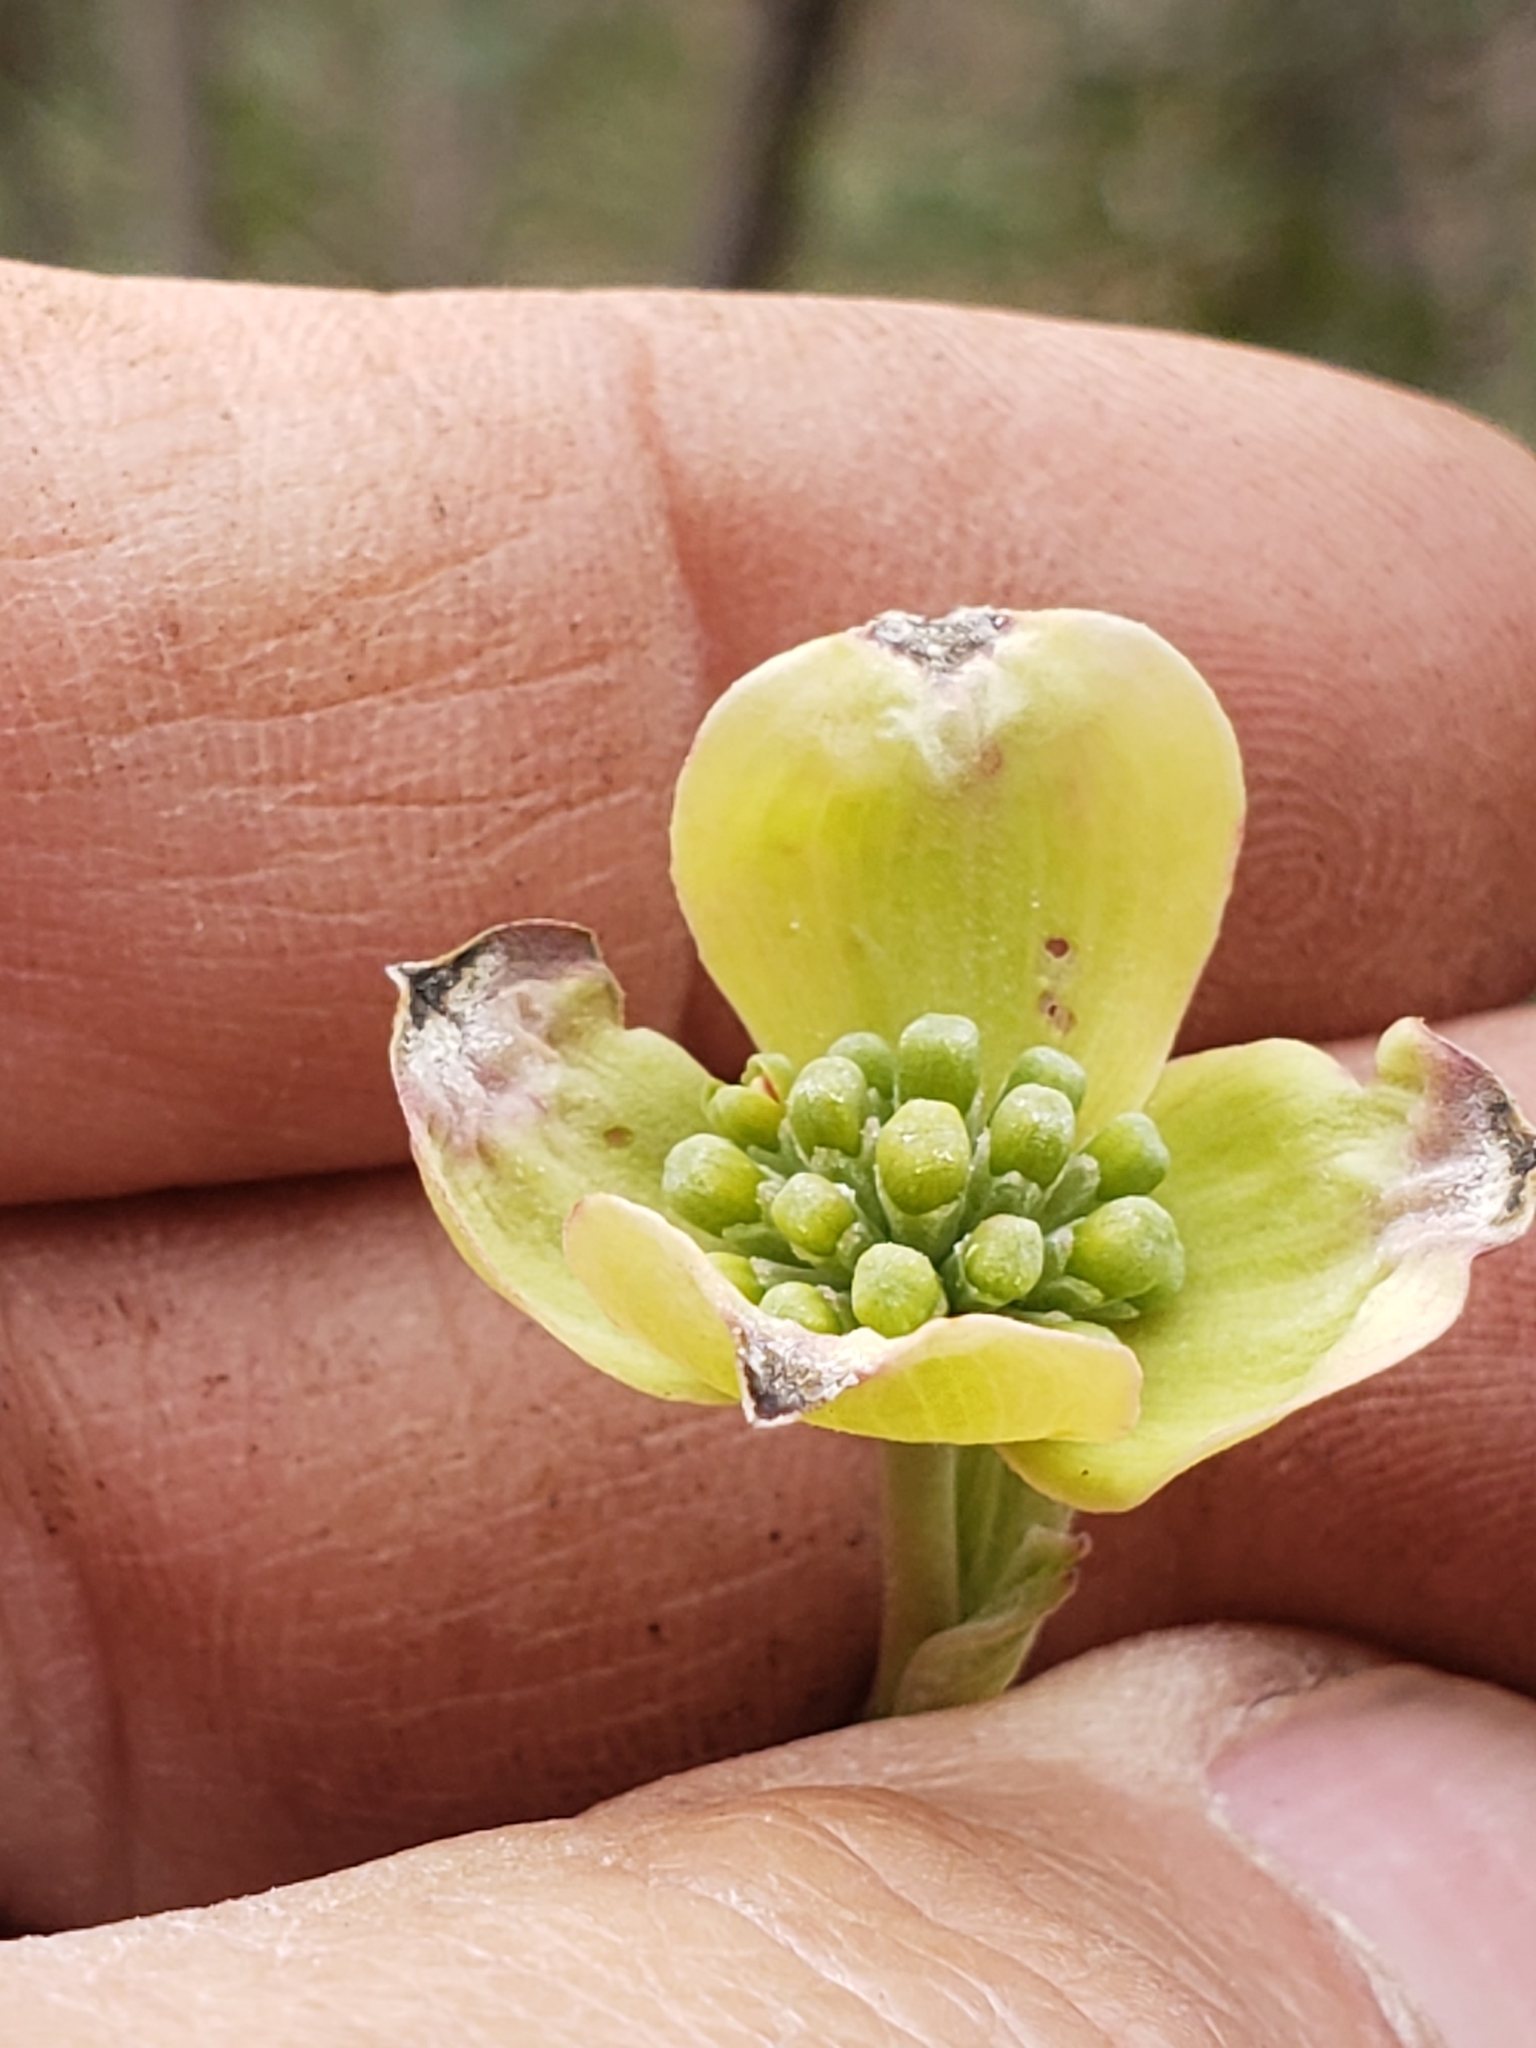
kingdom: Plantae
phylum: Tracheophyta
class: Magnoliopsida
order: Cornales
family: Cornaceae
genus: Cornus
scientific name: Cornus florida
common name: Flowering dogwood
